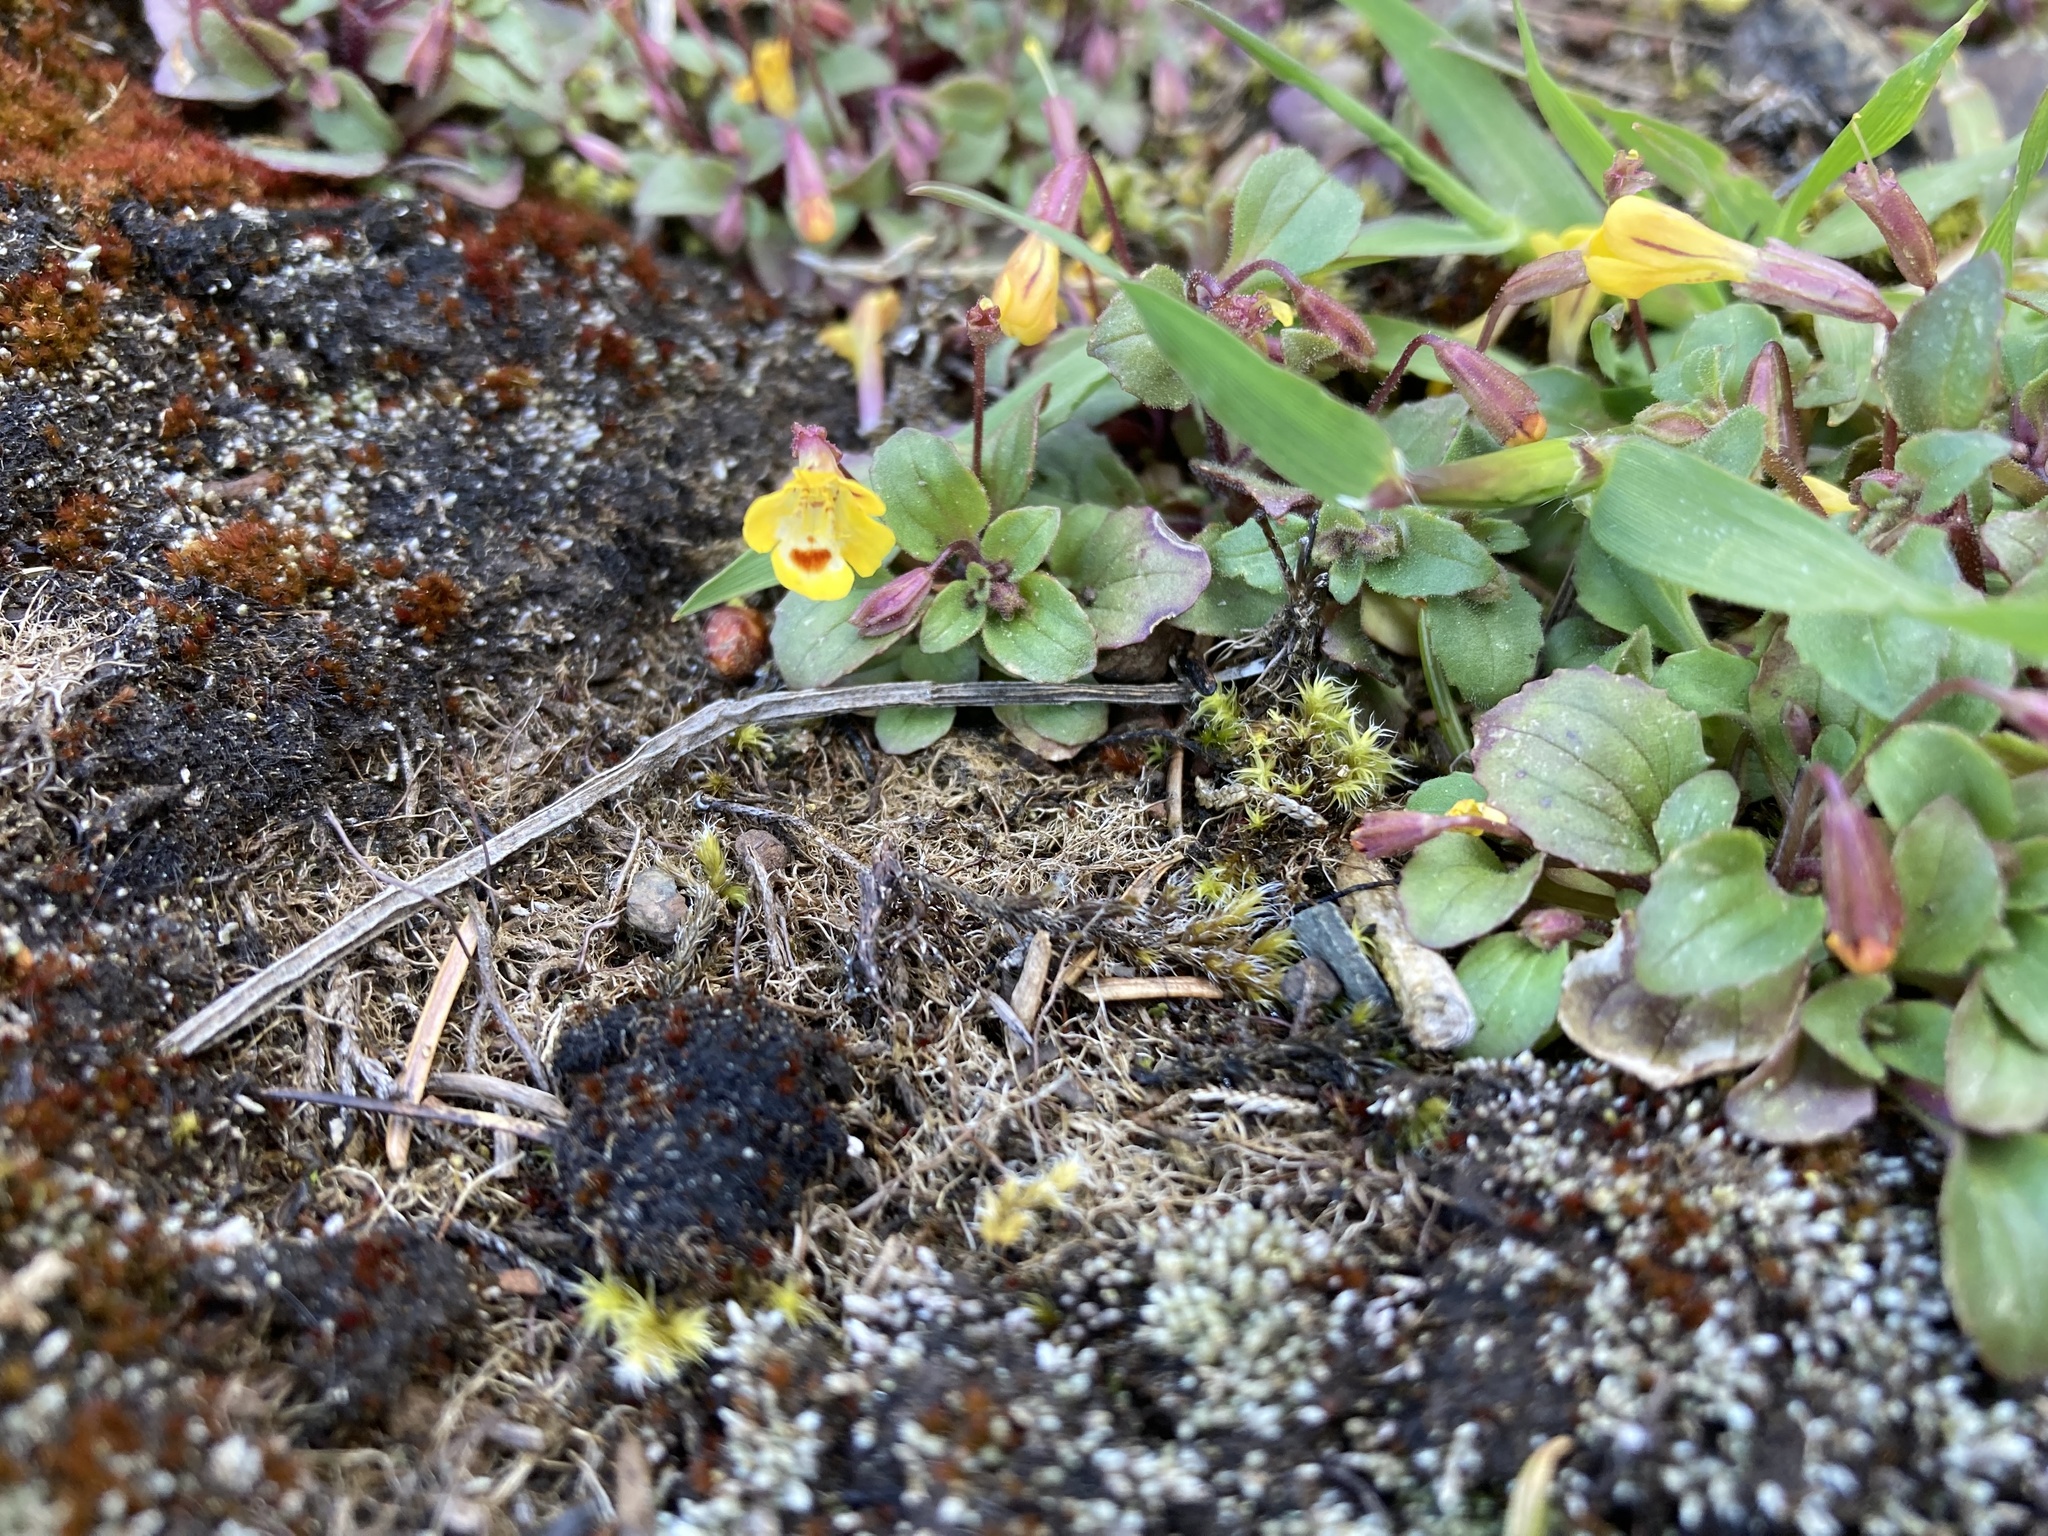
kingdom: Plantae
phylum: Tracheophyta
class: Magnoliopsida
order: Lamiales
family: Phrymaceae
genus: Erythranthe
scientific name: Erythranthe alsinoides
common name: Chickweed monkeyflower
